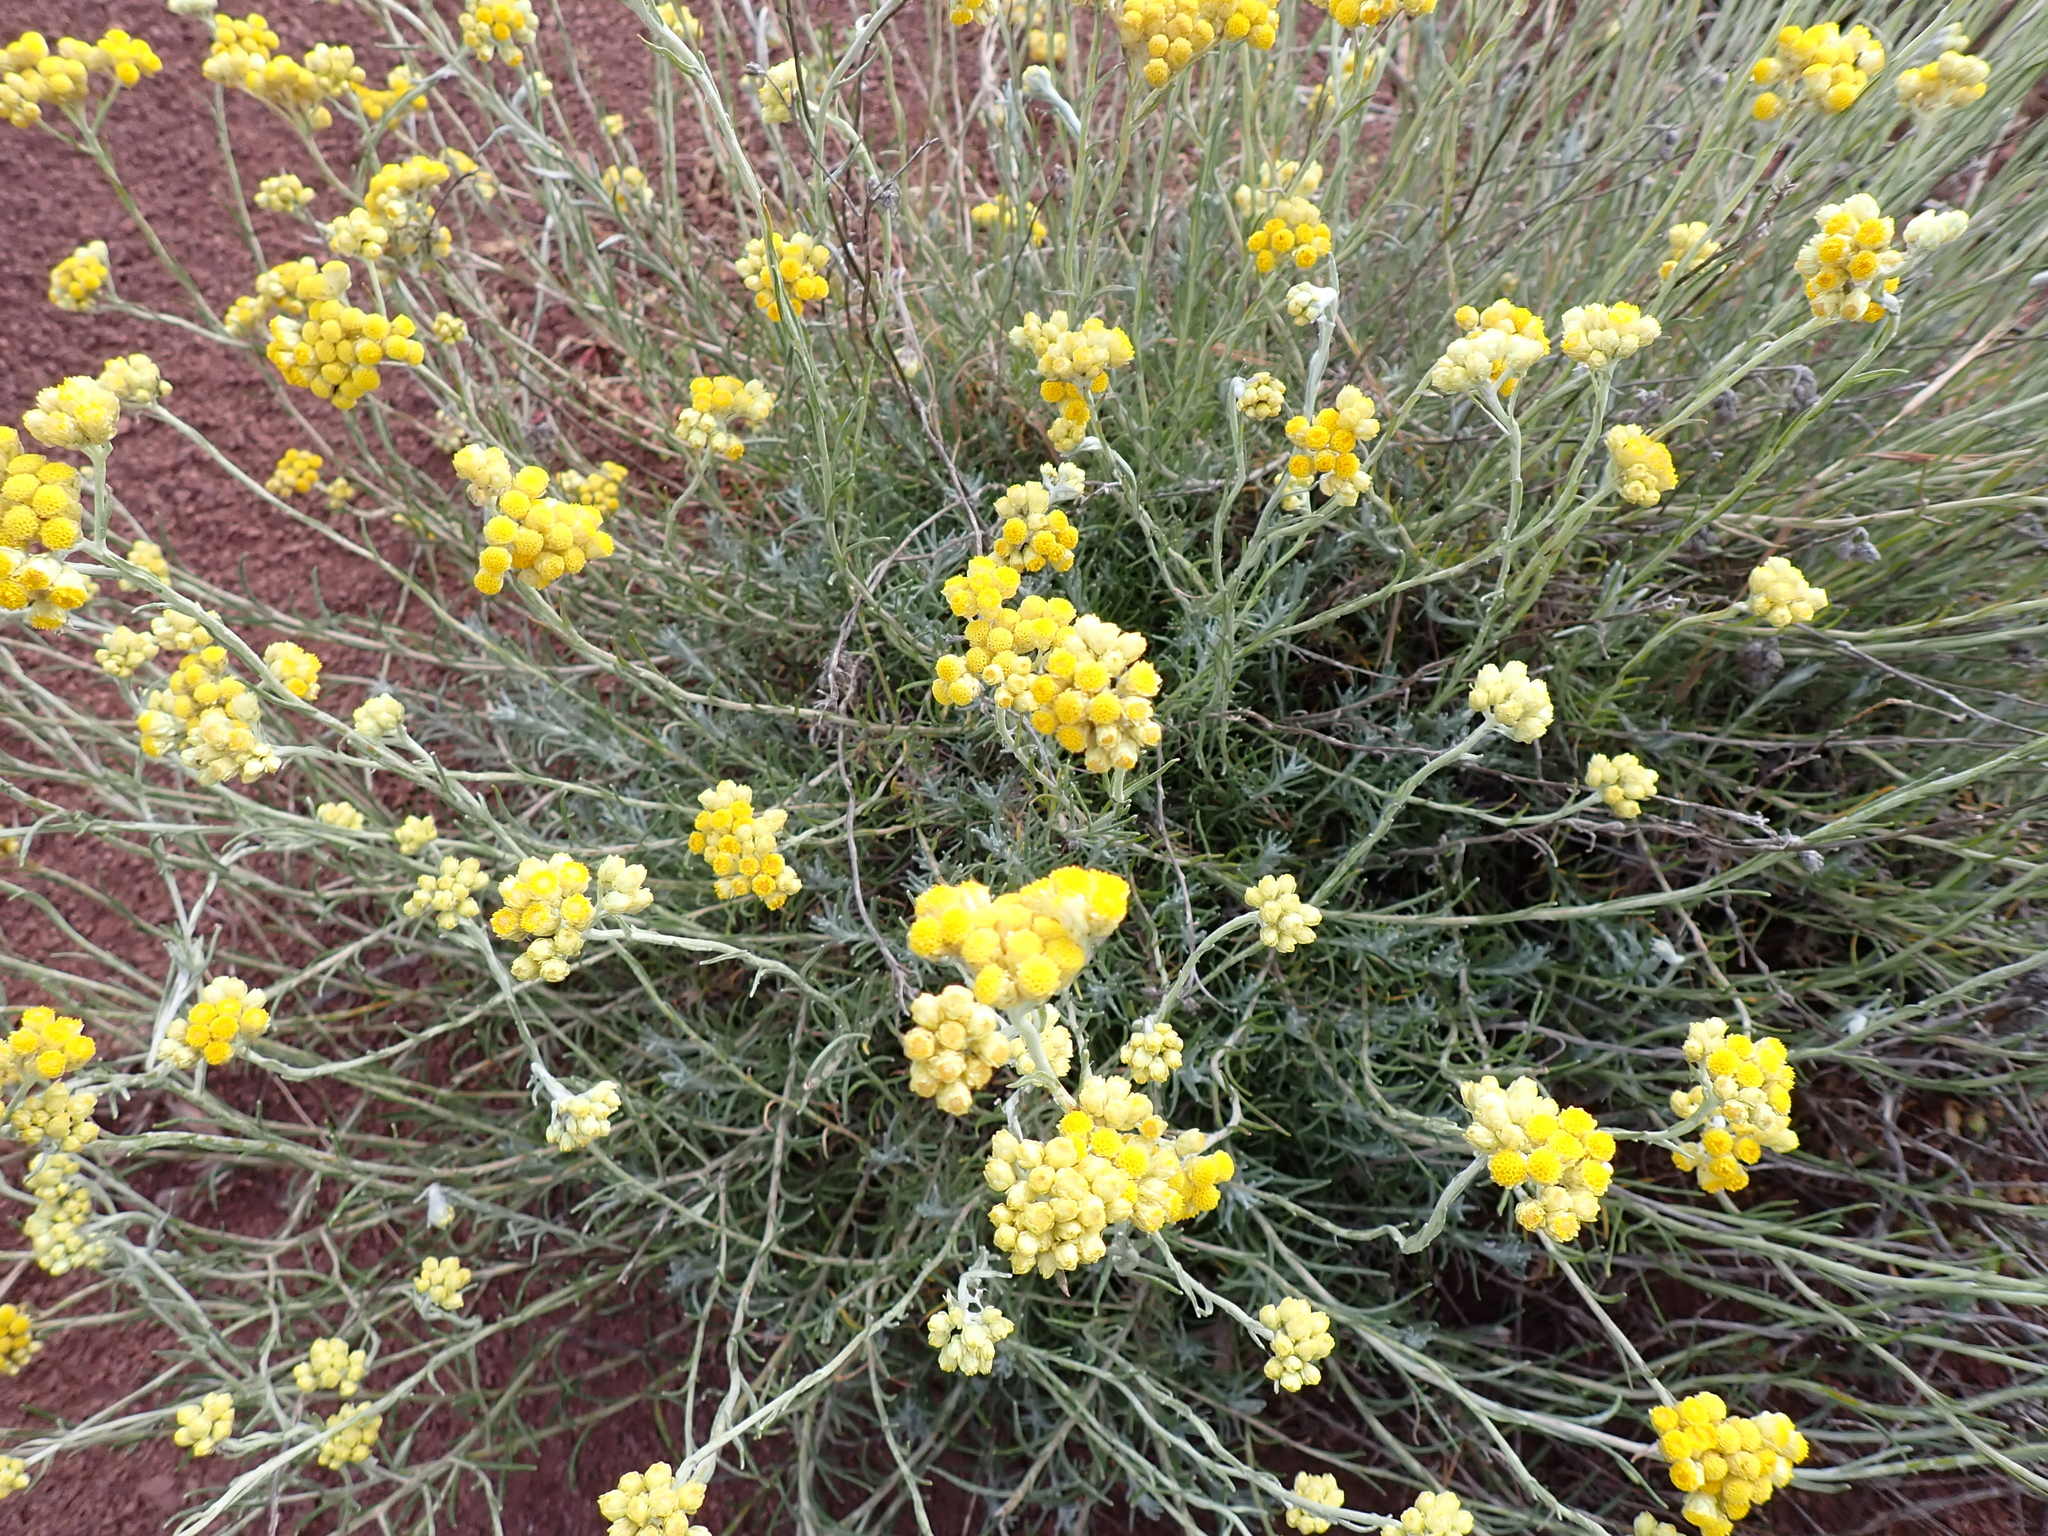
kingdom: Plantae
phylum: Tracheophyta
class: Magnoliopsida
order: Asterales
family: Asteraceae
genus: Helichrysum
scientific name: Helichrysum stoechas
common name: Goldilocks
